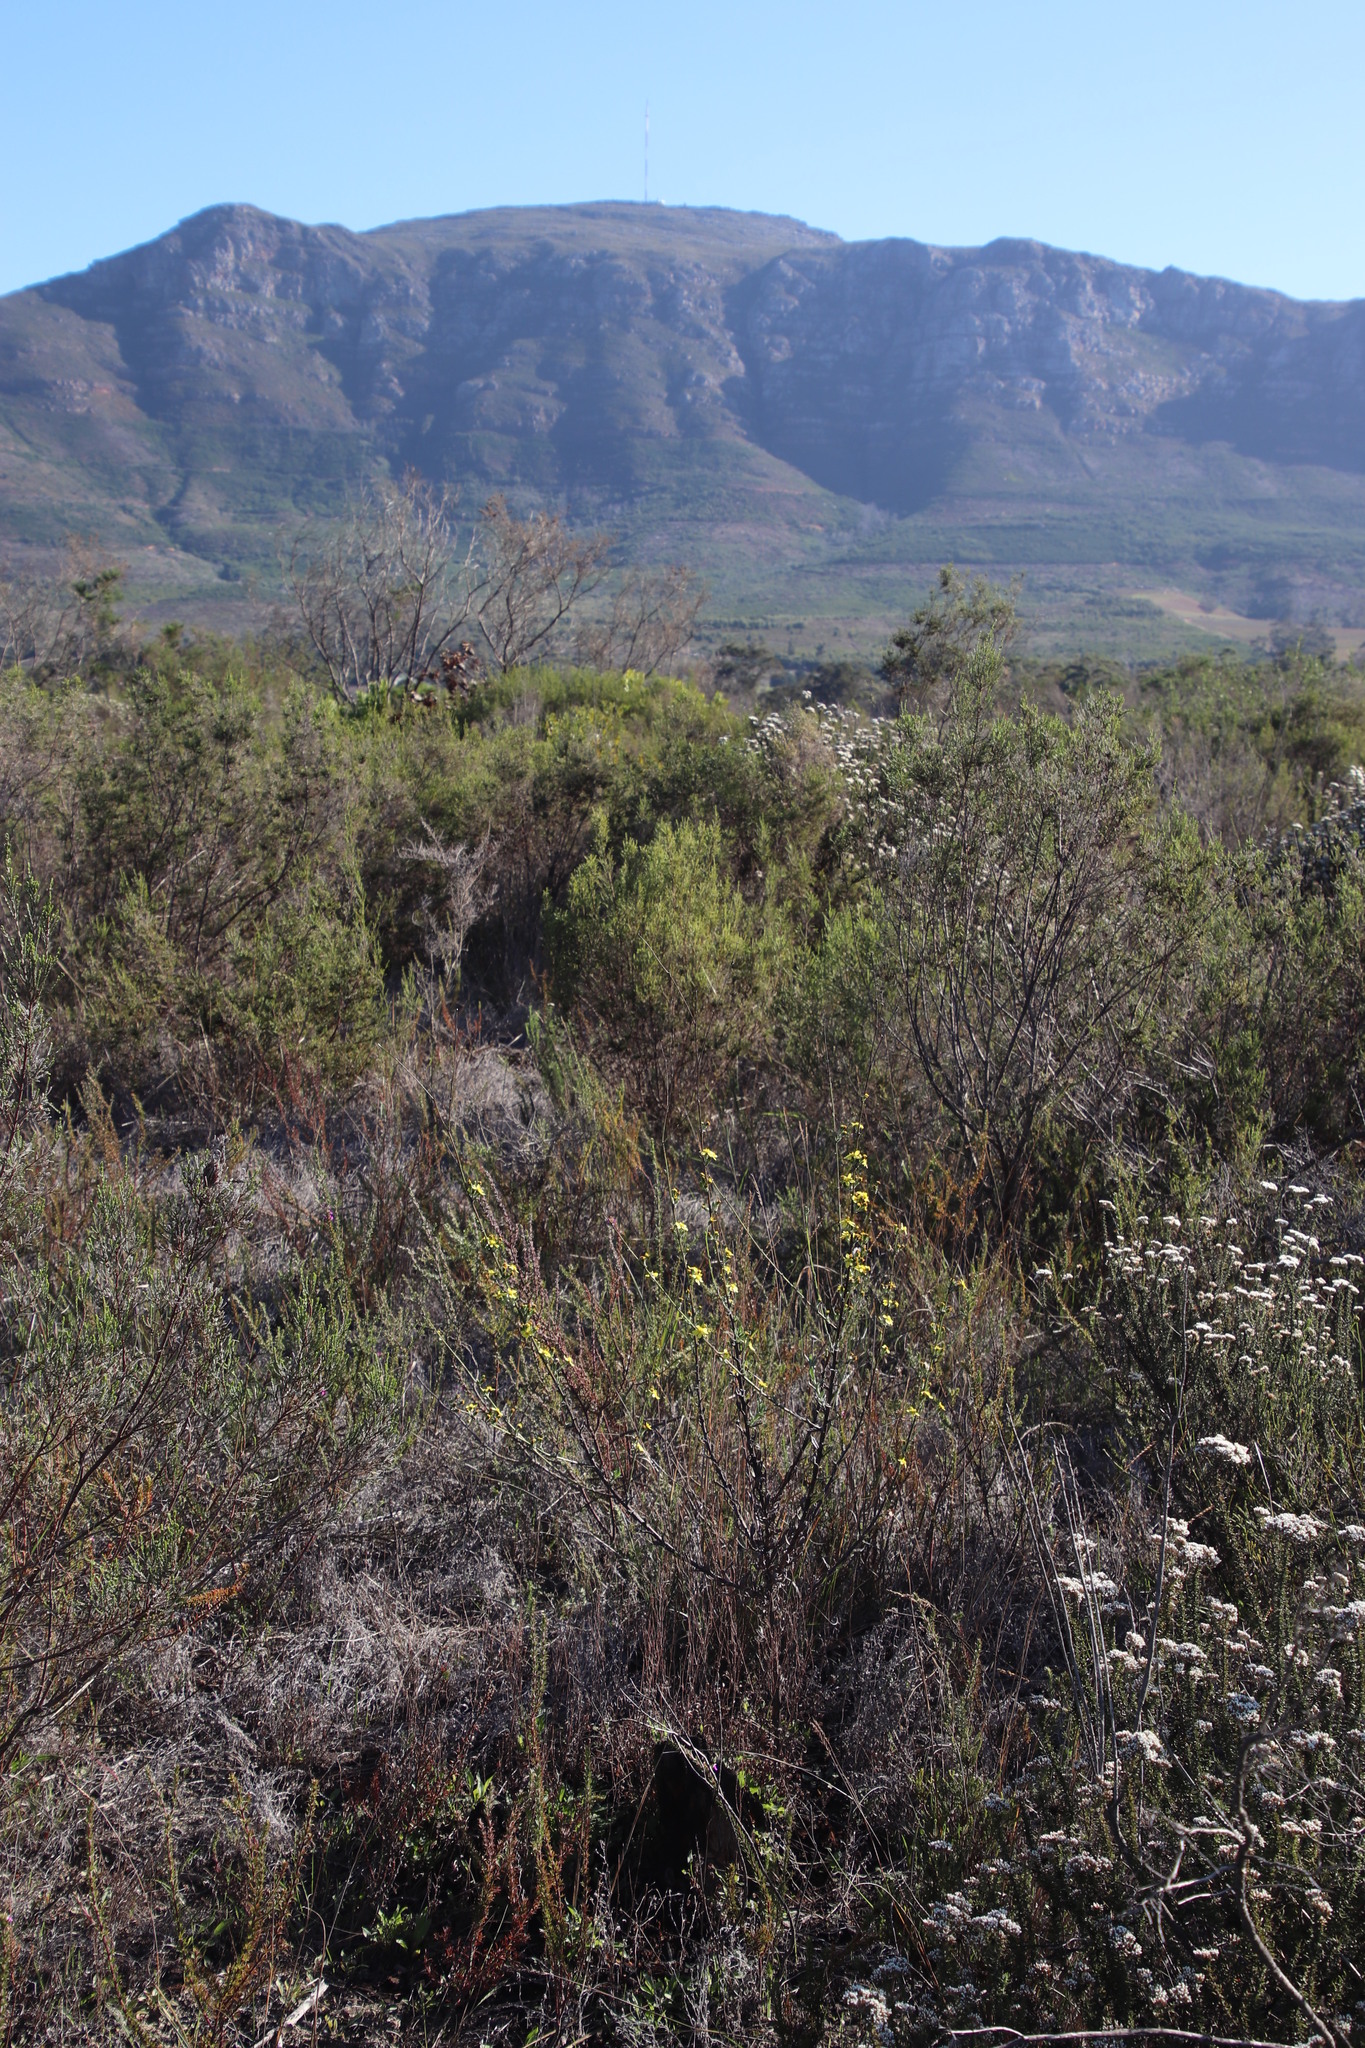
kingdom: Plantae
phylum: Tracheophyta
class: Magnoliopsida
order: Asterales
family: Asteraceae
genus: Senecio
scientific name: Senecio pubigerus
